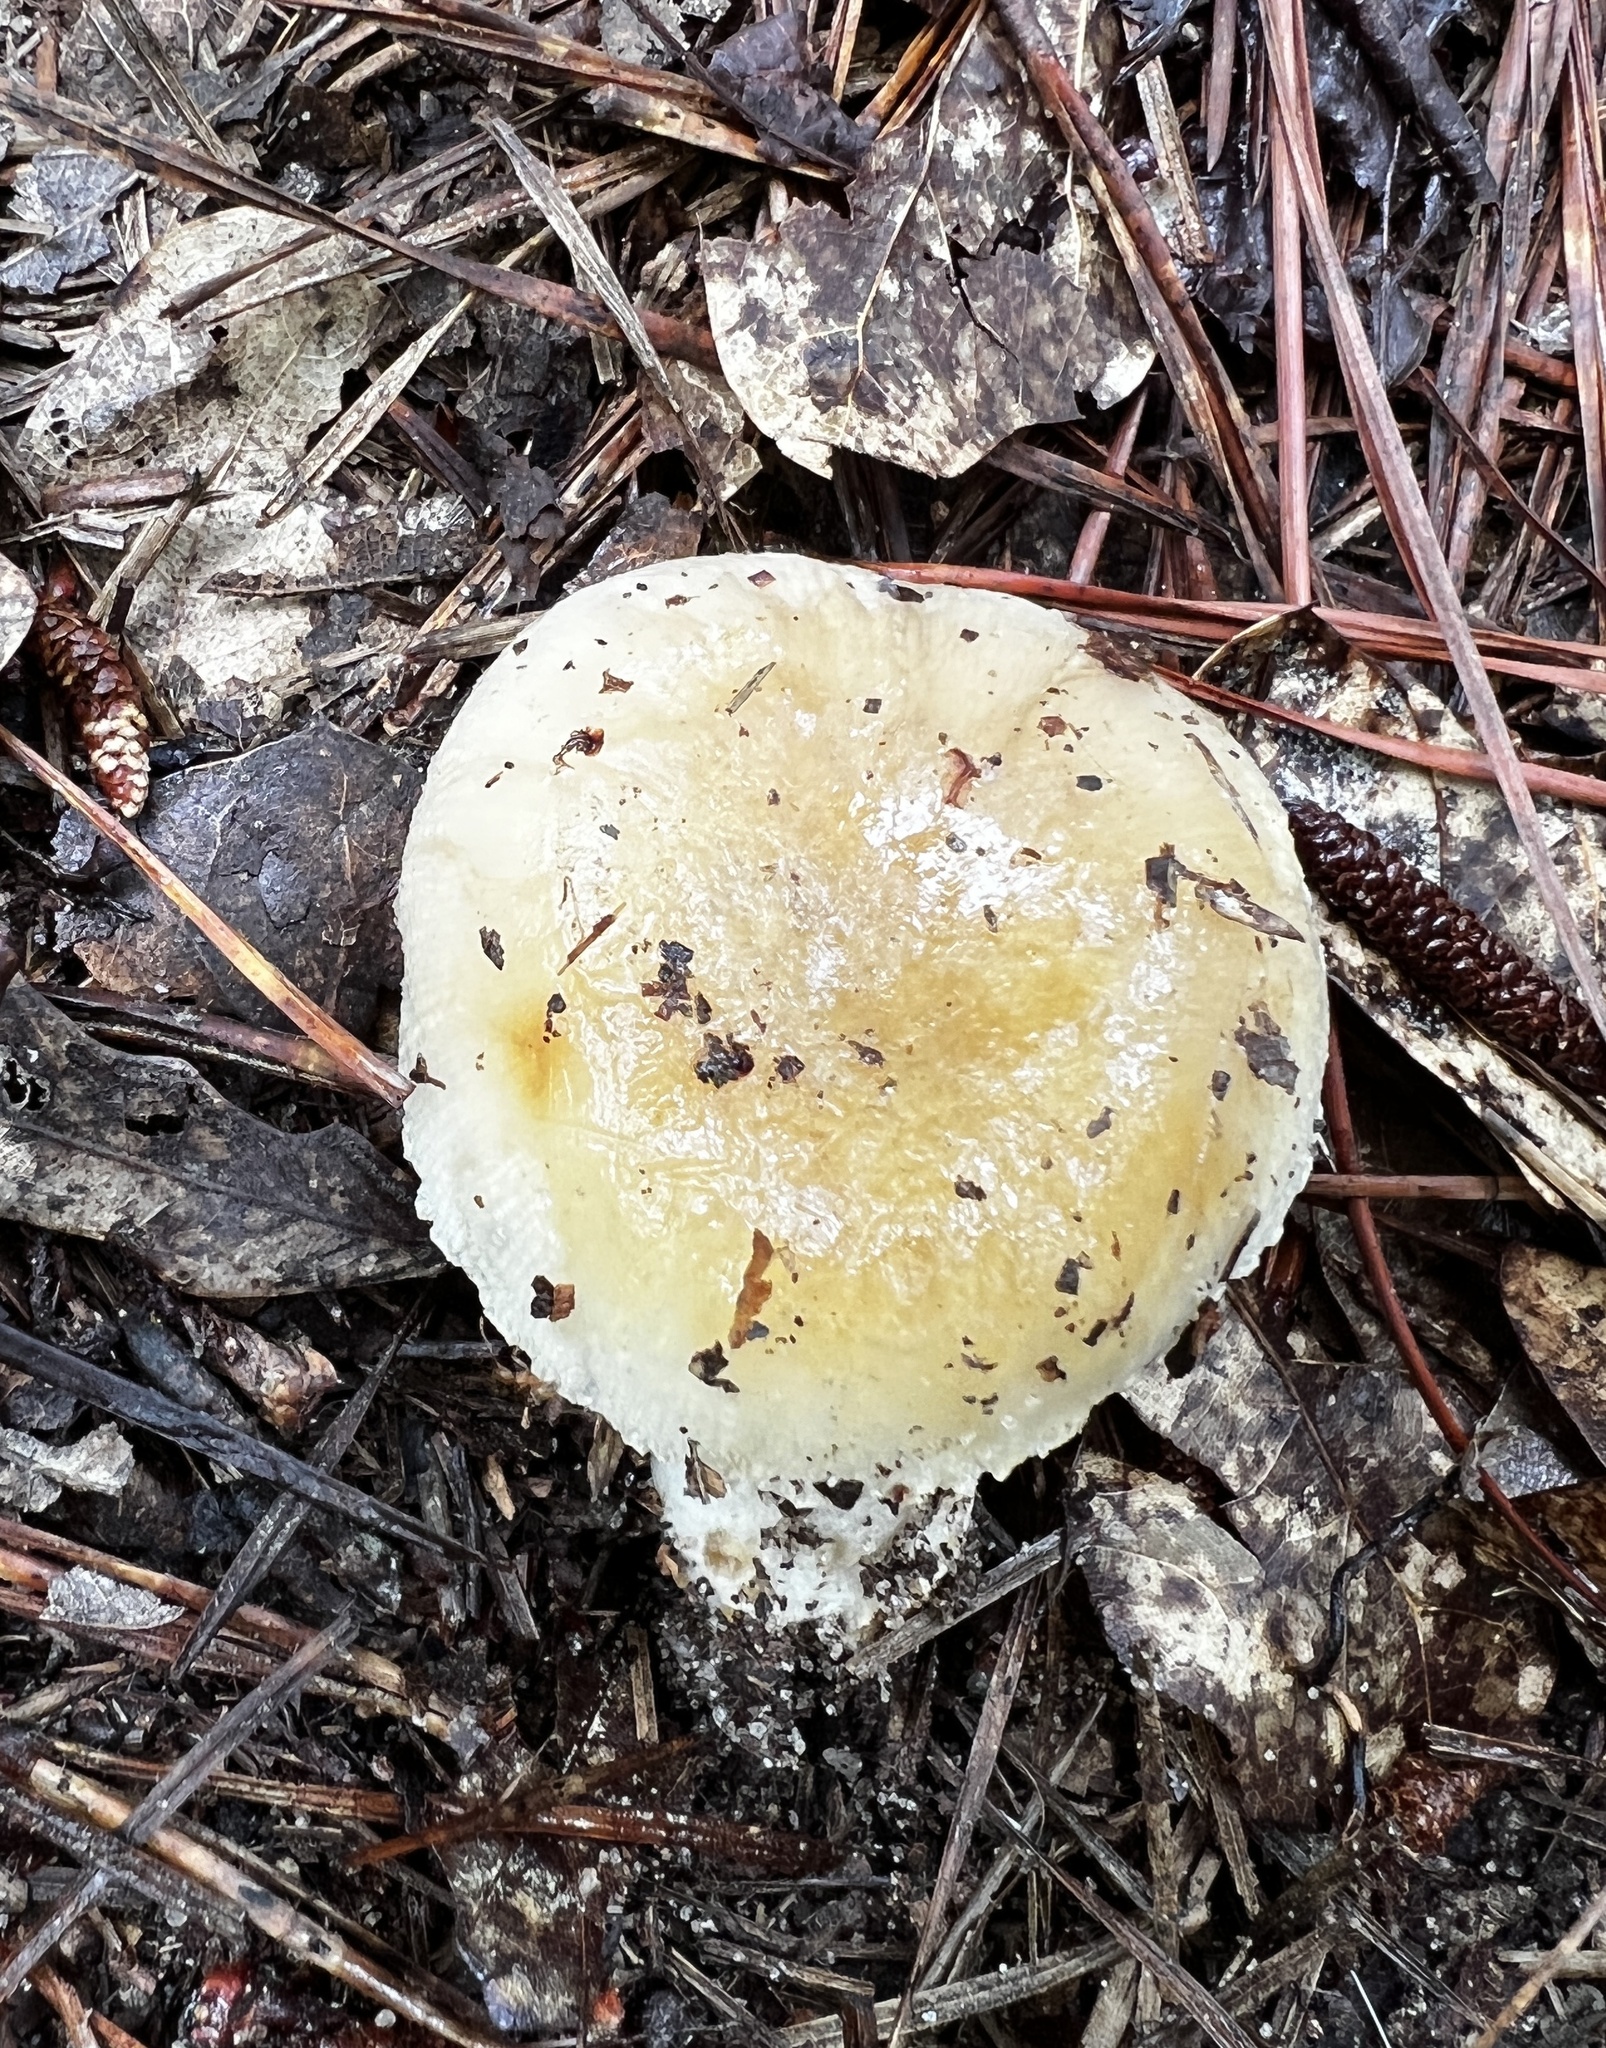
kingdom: Fungi
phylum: Basidiomycota
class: Agaricomycetes
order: Russulales
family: Russulaceae
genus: Russula
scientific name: Russula amoenolens
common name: Camembert brittlegill
